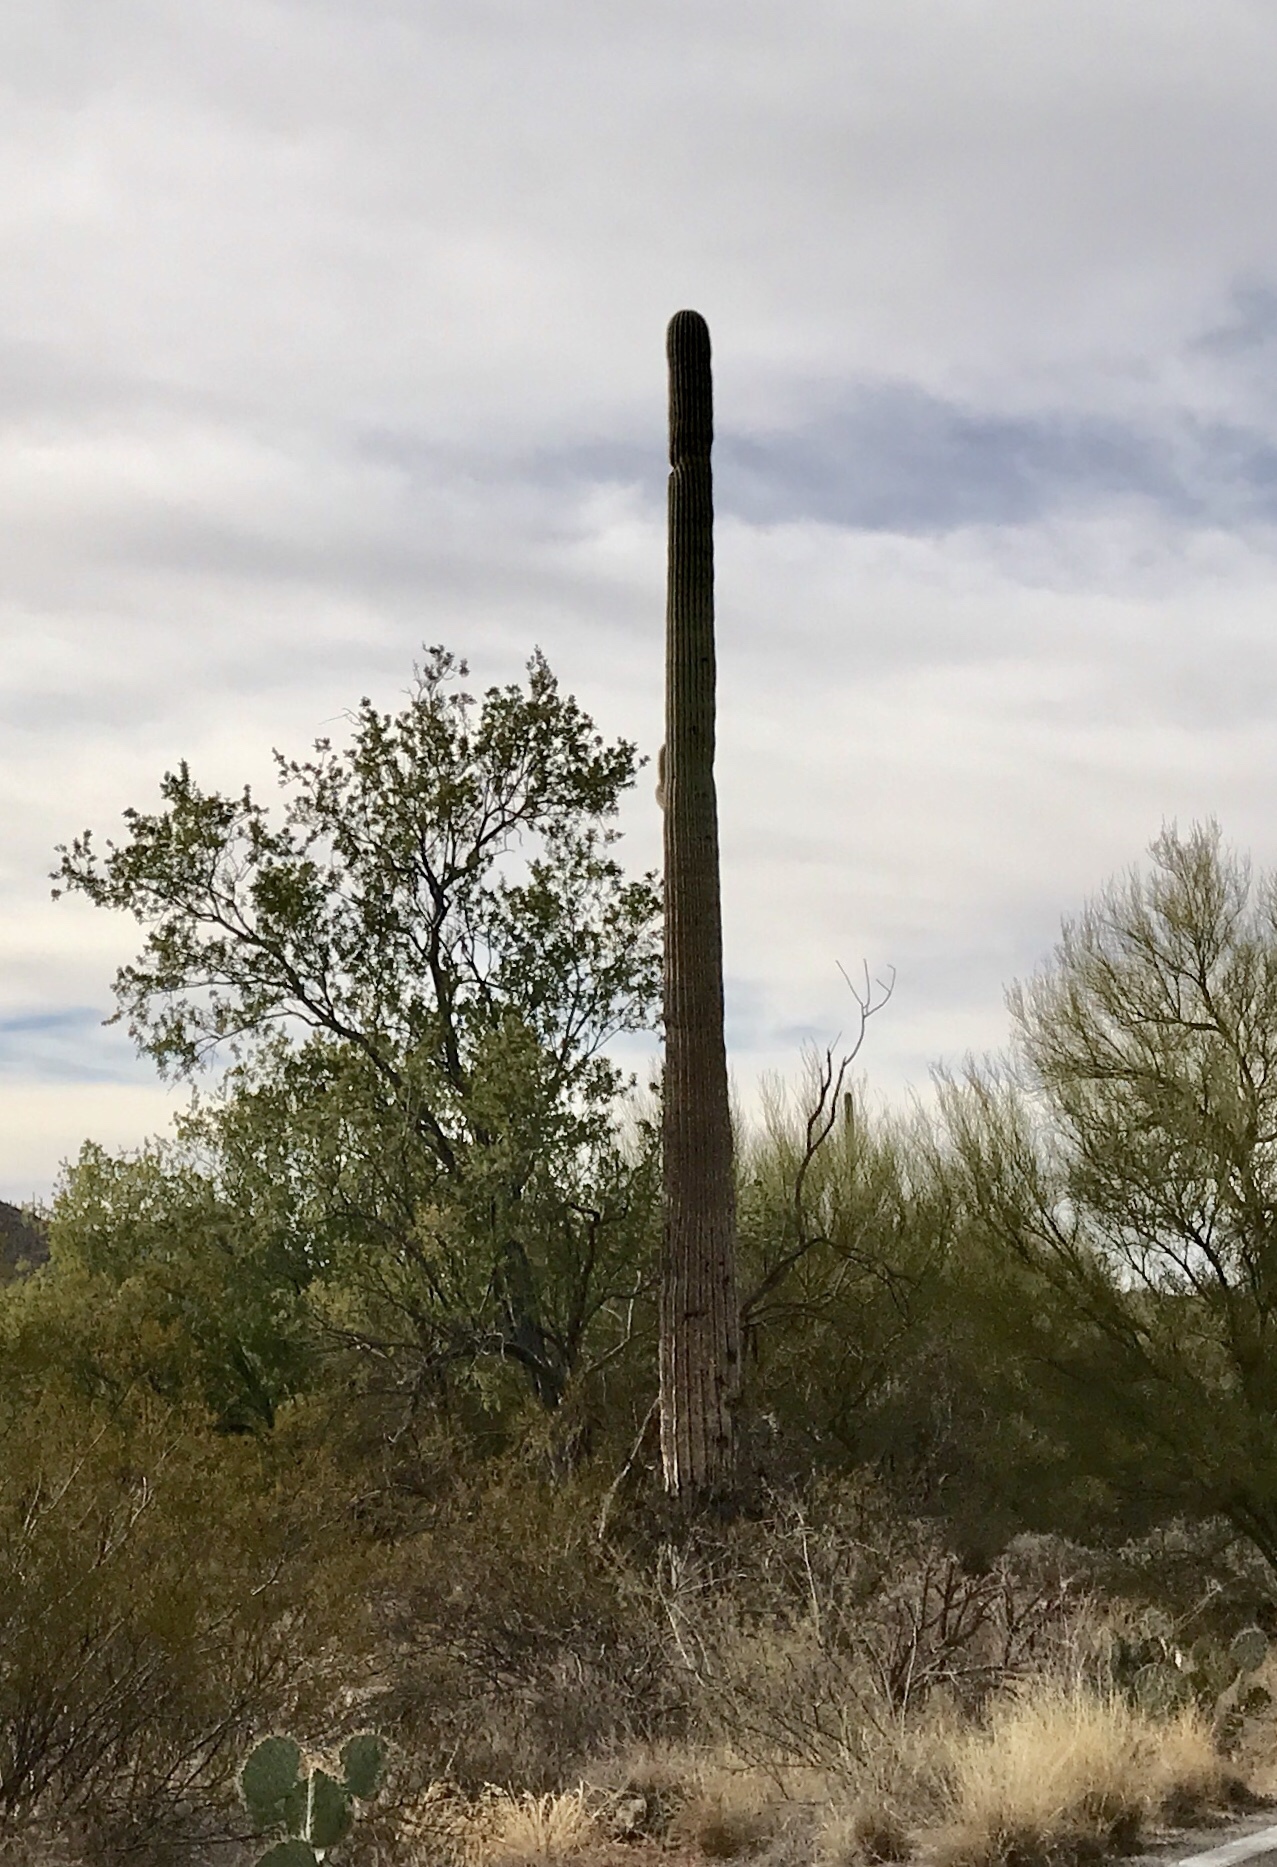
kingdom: Plantae
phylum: Tracheophyta
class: Magnoliopsida
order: Caryophyllales
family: Cactaceae
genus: Carnegiea
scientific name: Carnegiea gigantea
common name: Saguaro
